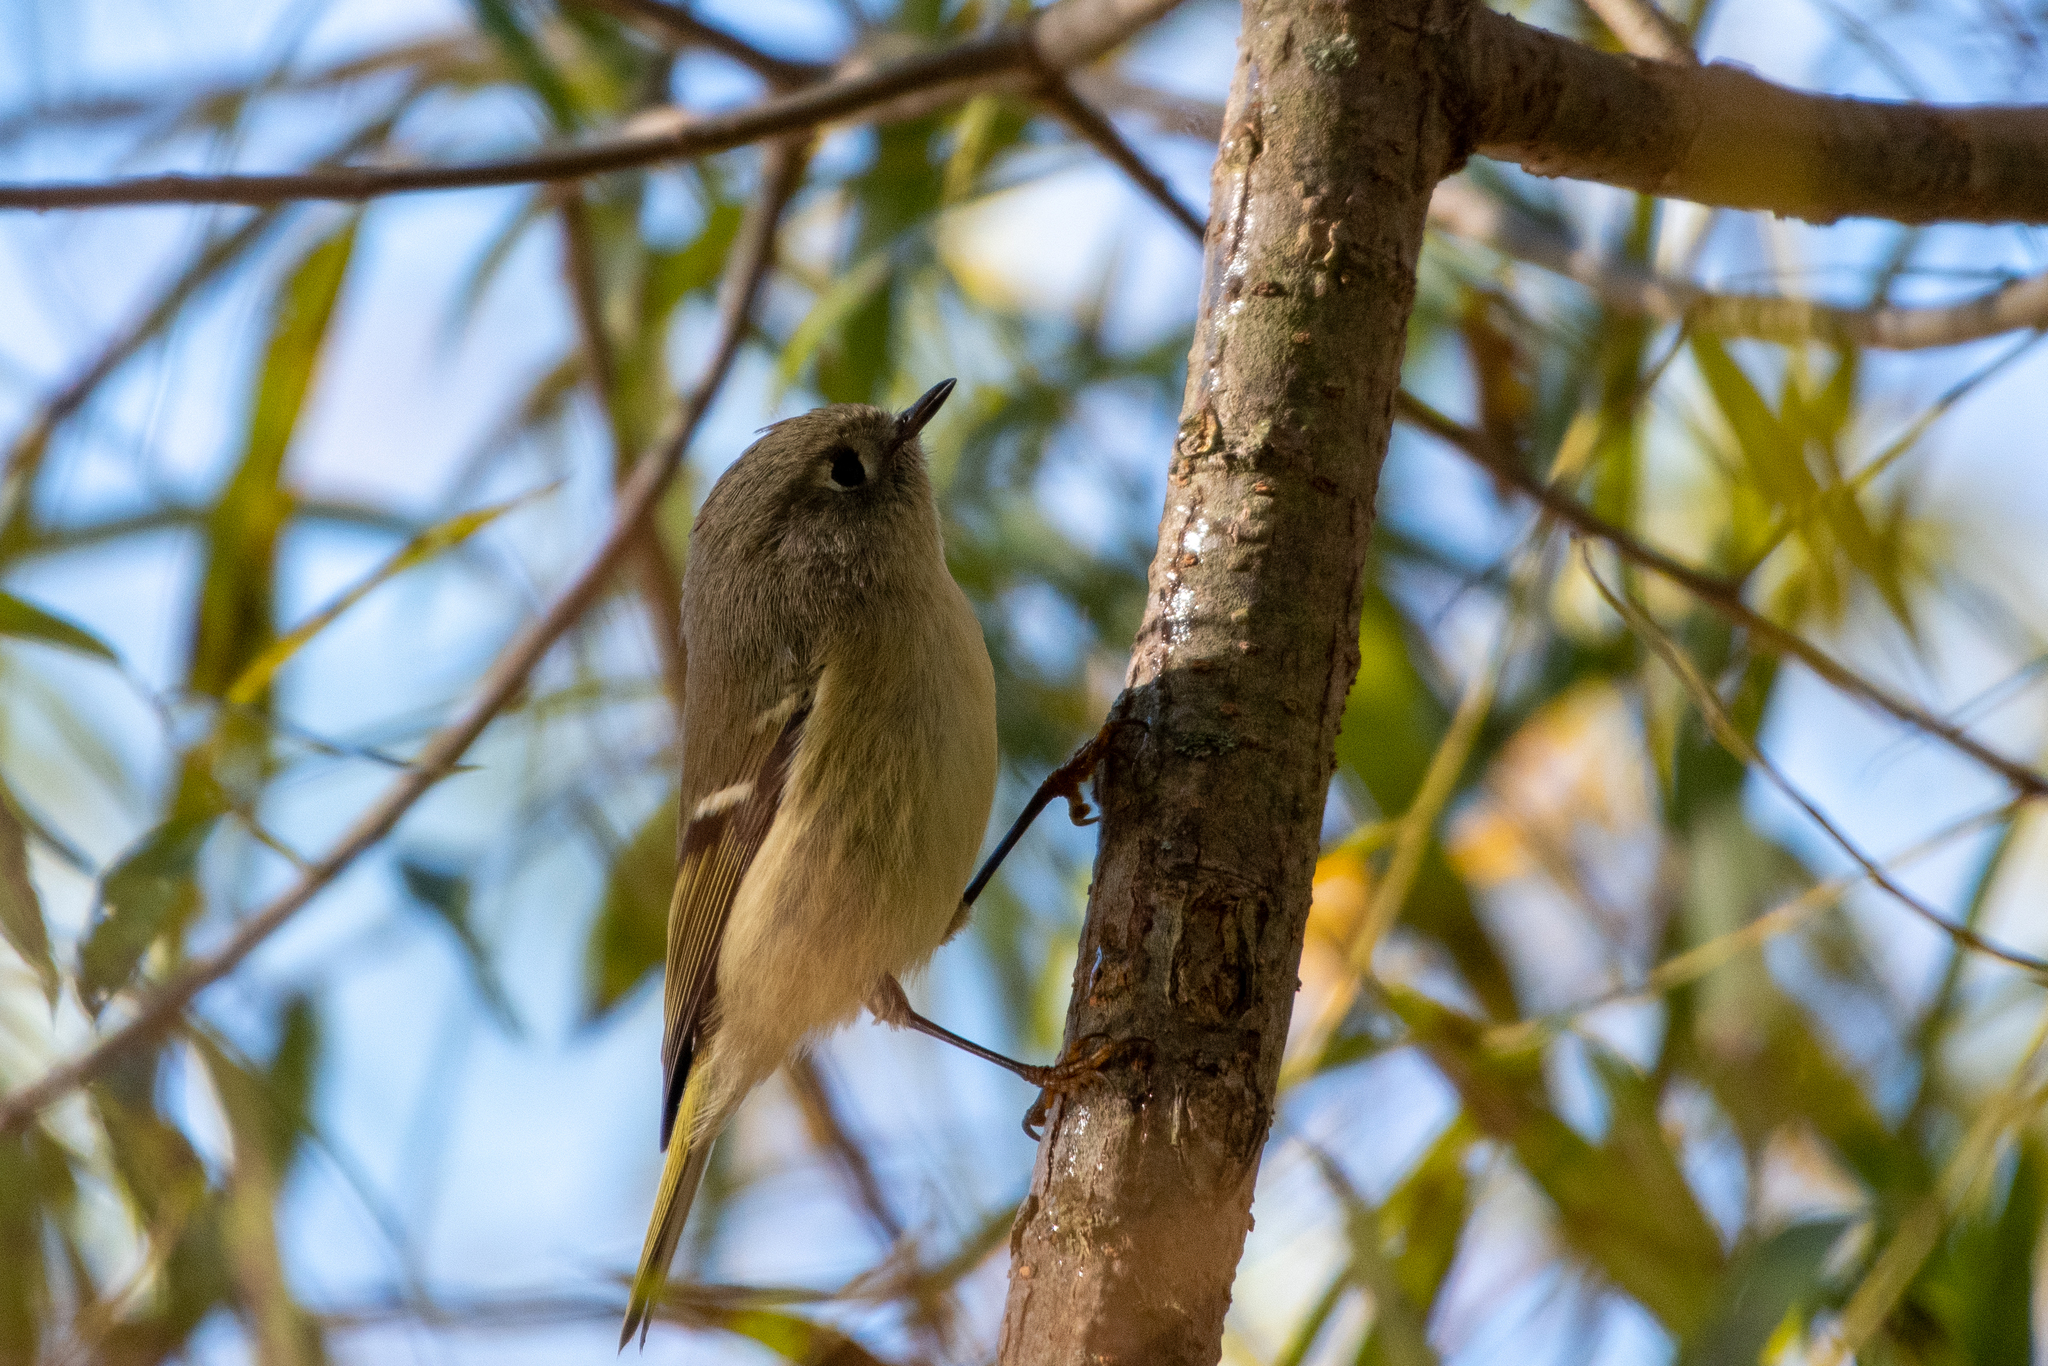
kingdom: Animalia
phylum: Chordata
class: Aves
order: Passeriformes
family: Regulidae
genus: Regulus
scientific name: Regulus calendula
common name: Ruby-crowned kinglet
